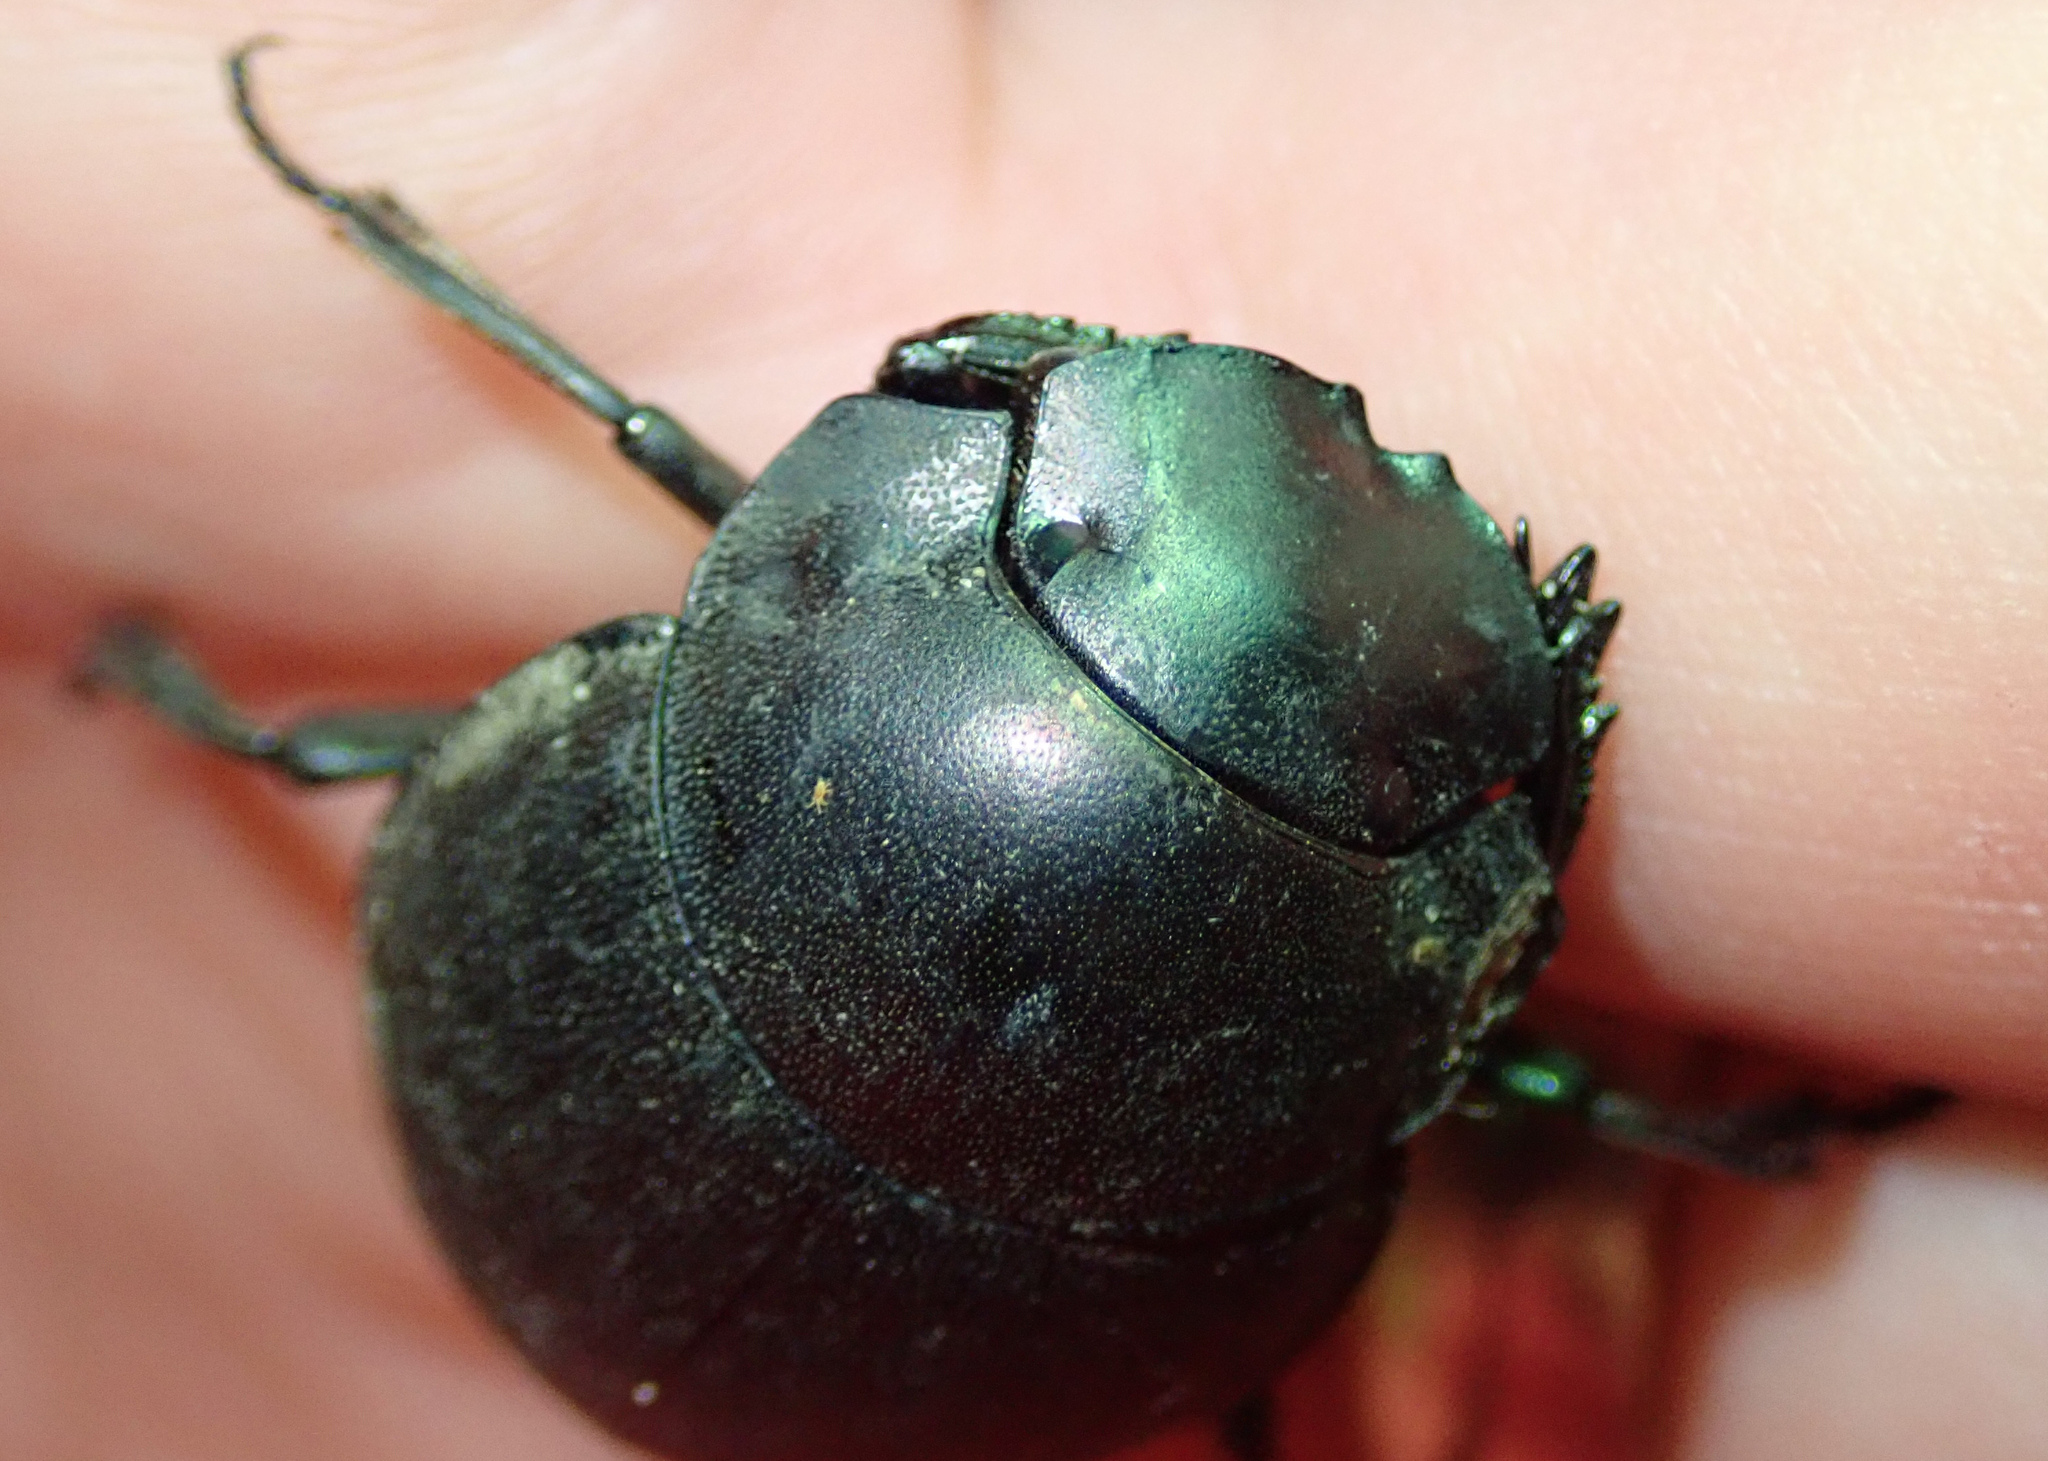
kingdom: Animalia
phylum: Arthropoda
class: Insecta
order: Coleoptera
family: Scarabaeidae
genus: Chalconotus
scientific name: Chalconotus convexus
